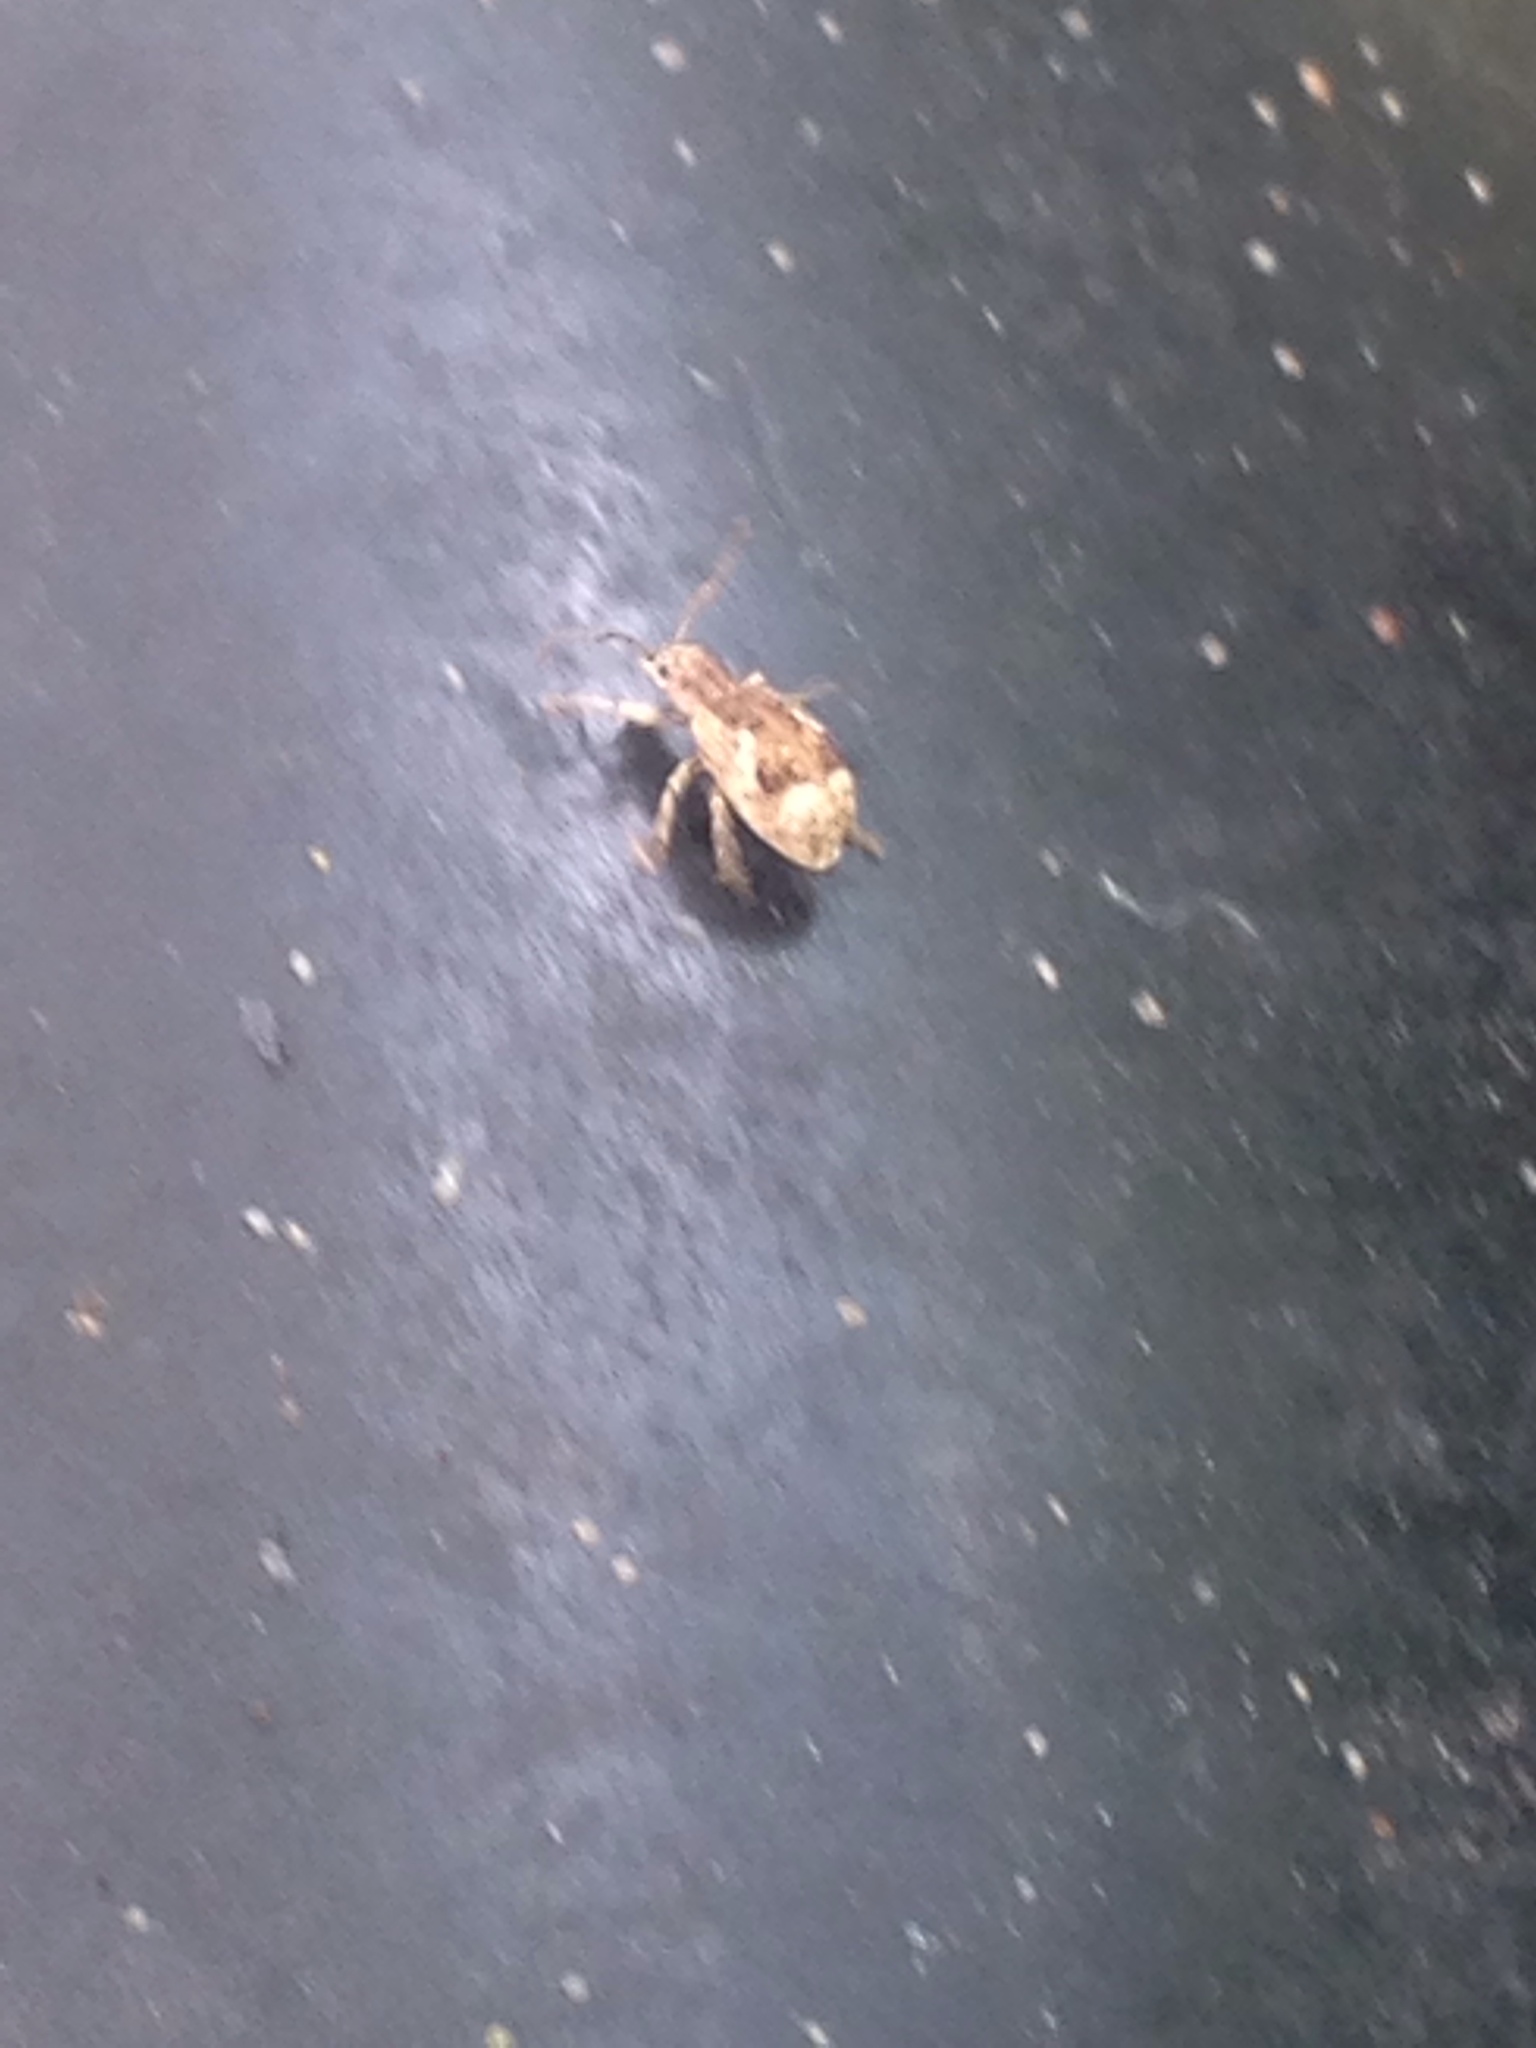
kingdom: Animalia
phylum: Arthropoda
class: Insecta
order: Coleoptera
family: Curculionidae
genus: Pseudoedophrys
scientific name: Pseudoedophrys hilleri
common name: Weevil
